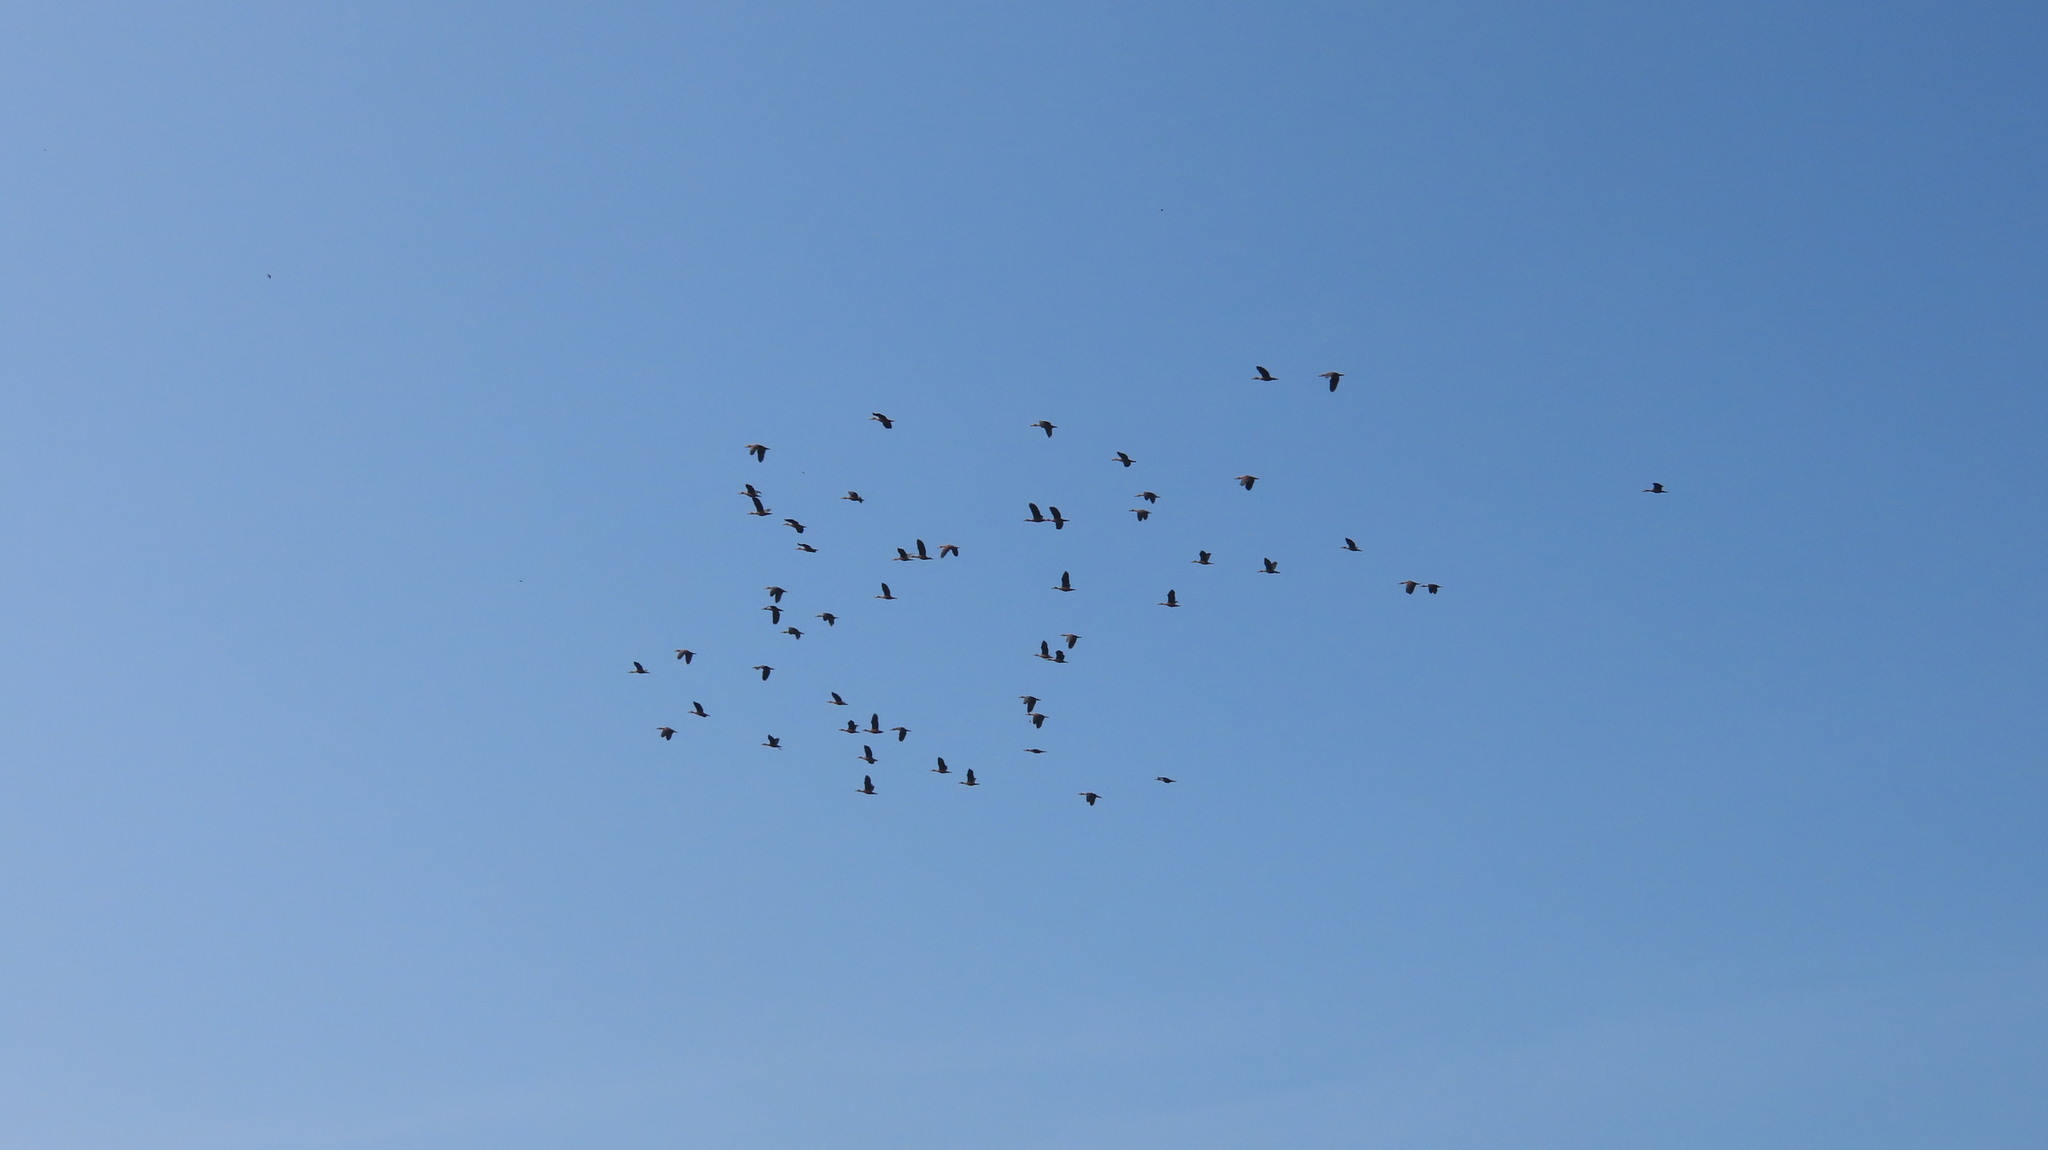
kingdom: Animalia
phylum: Chordata
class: Aves
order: Anseriformes
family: Anatidae
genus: Dendrocygna
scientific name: Dendrocygna javanica
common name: Lesser whistling-duck
